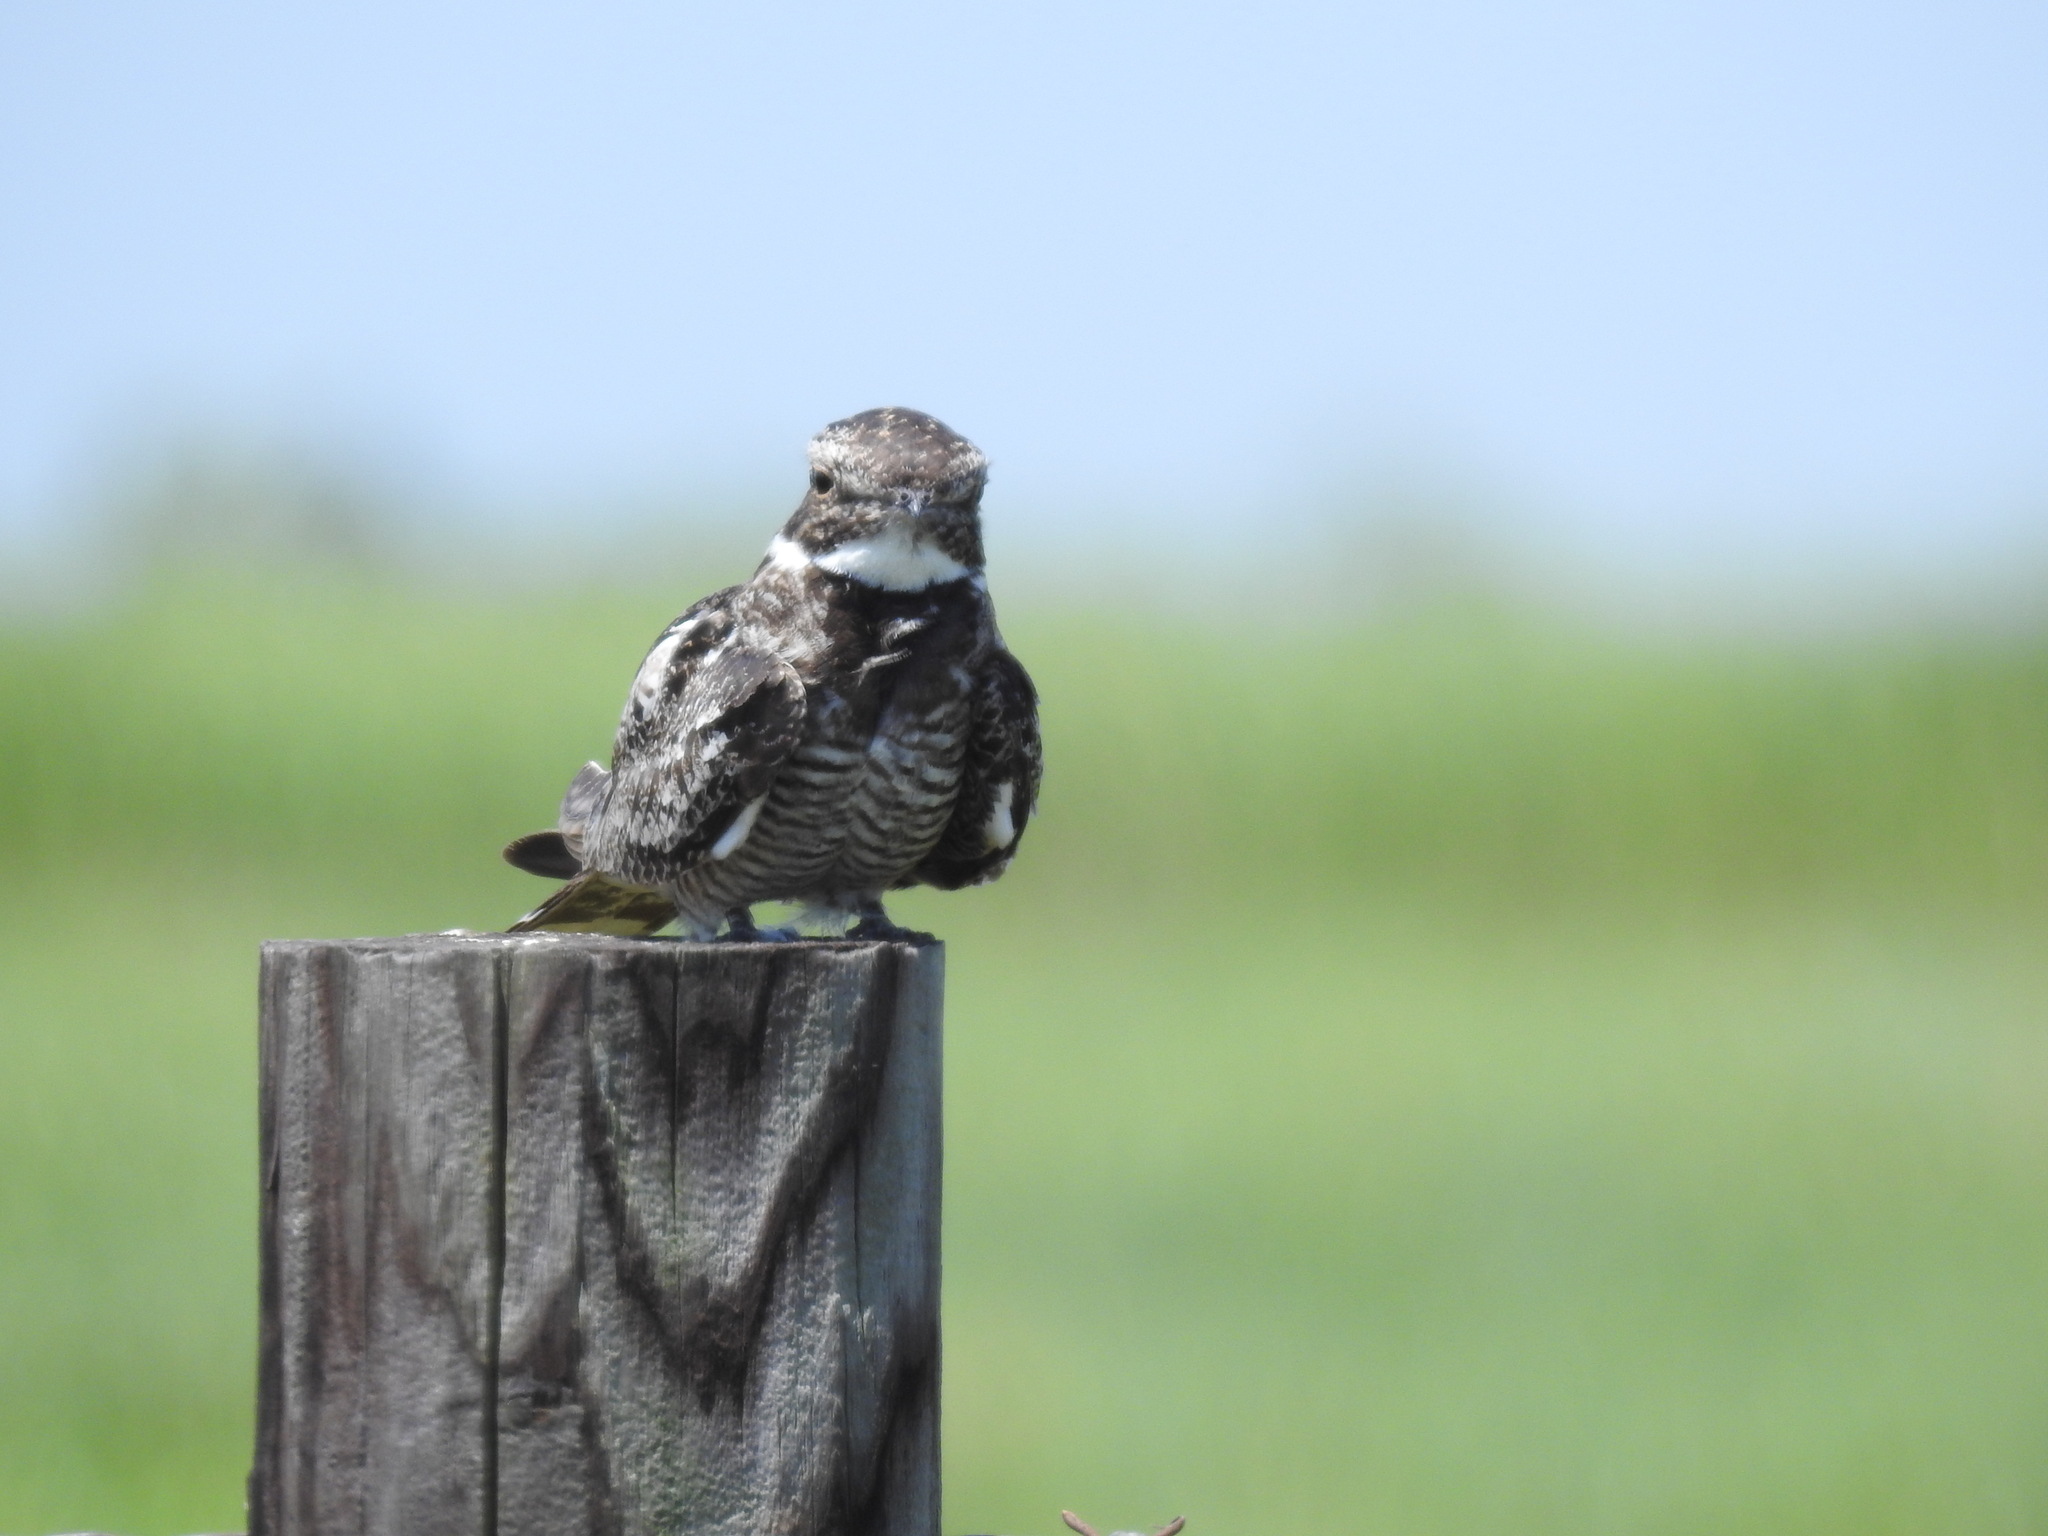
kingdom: Animalia
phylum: Chordata
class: Aves
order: Caprimulgiformes
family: Caprimulgidae
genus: Chordeiles
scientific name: Chordeiles minor
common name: Common nighthawk
